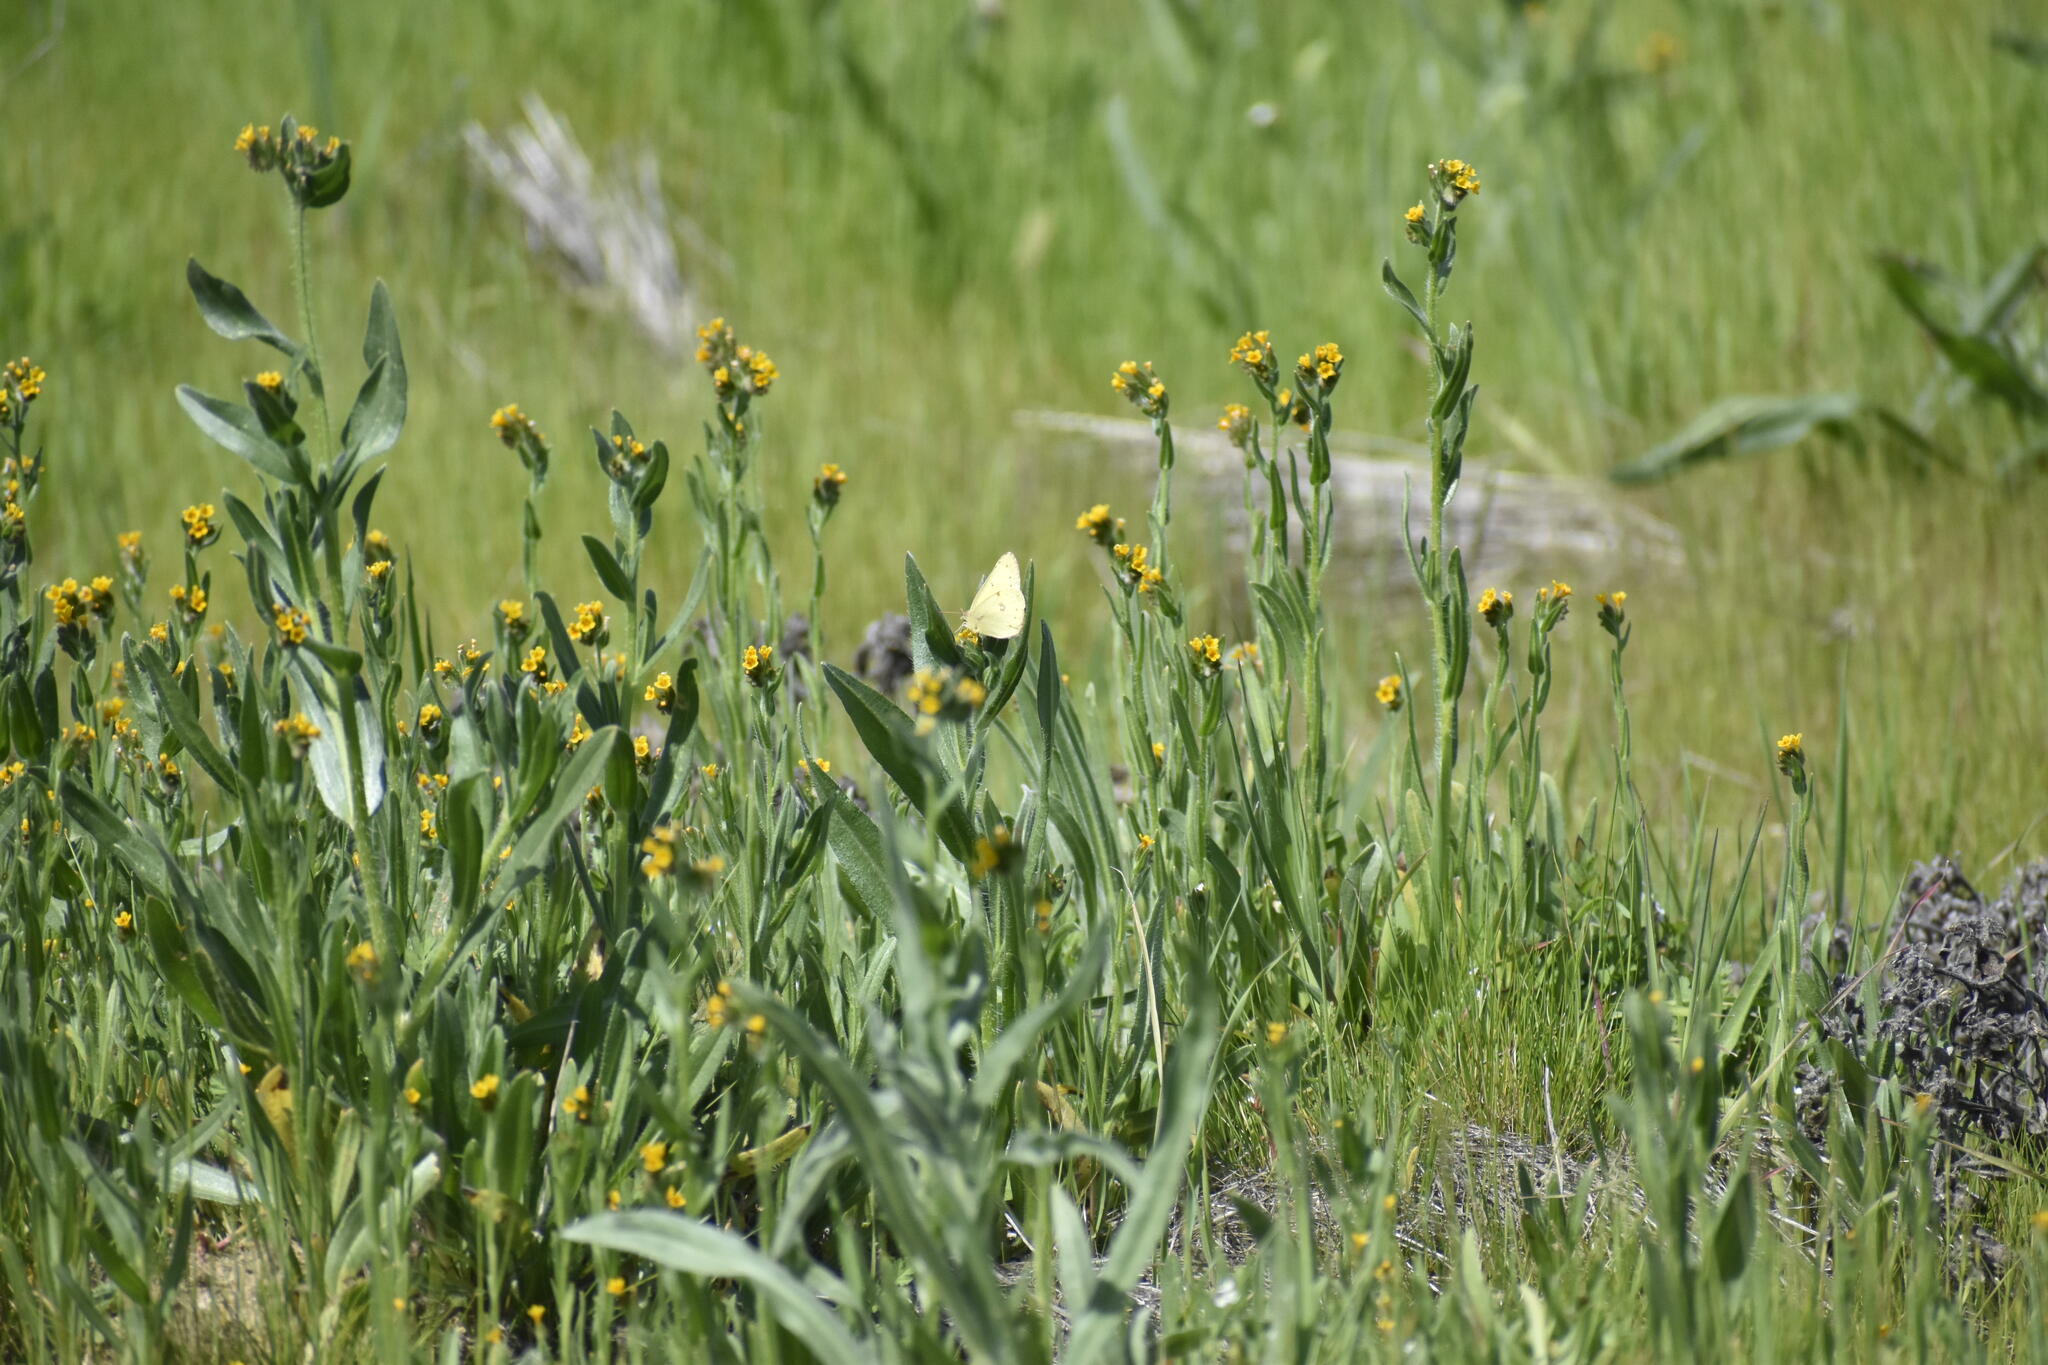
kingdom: Animalia
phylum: Arthropoda
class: Insecta
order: Lepidoptera
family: Pieridae
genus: Colias
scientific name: Colias eurytheme
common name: Alfalfa butterfly
